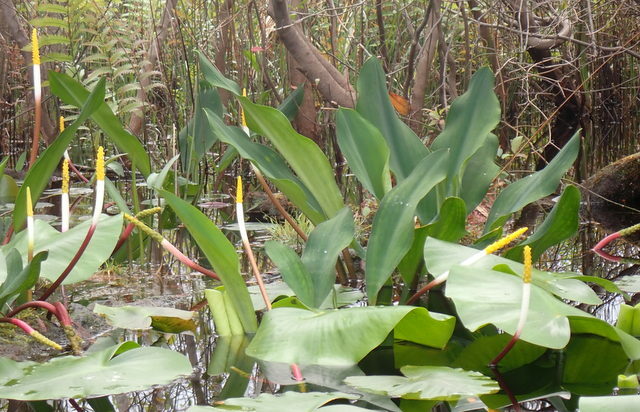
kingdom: Plantae
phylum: Tracheophyta
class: Liliopsida
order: Alismatales
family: Araceae
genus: Orontium
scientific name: Orontium aquaticum
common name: Golden-club
